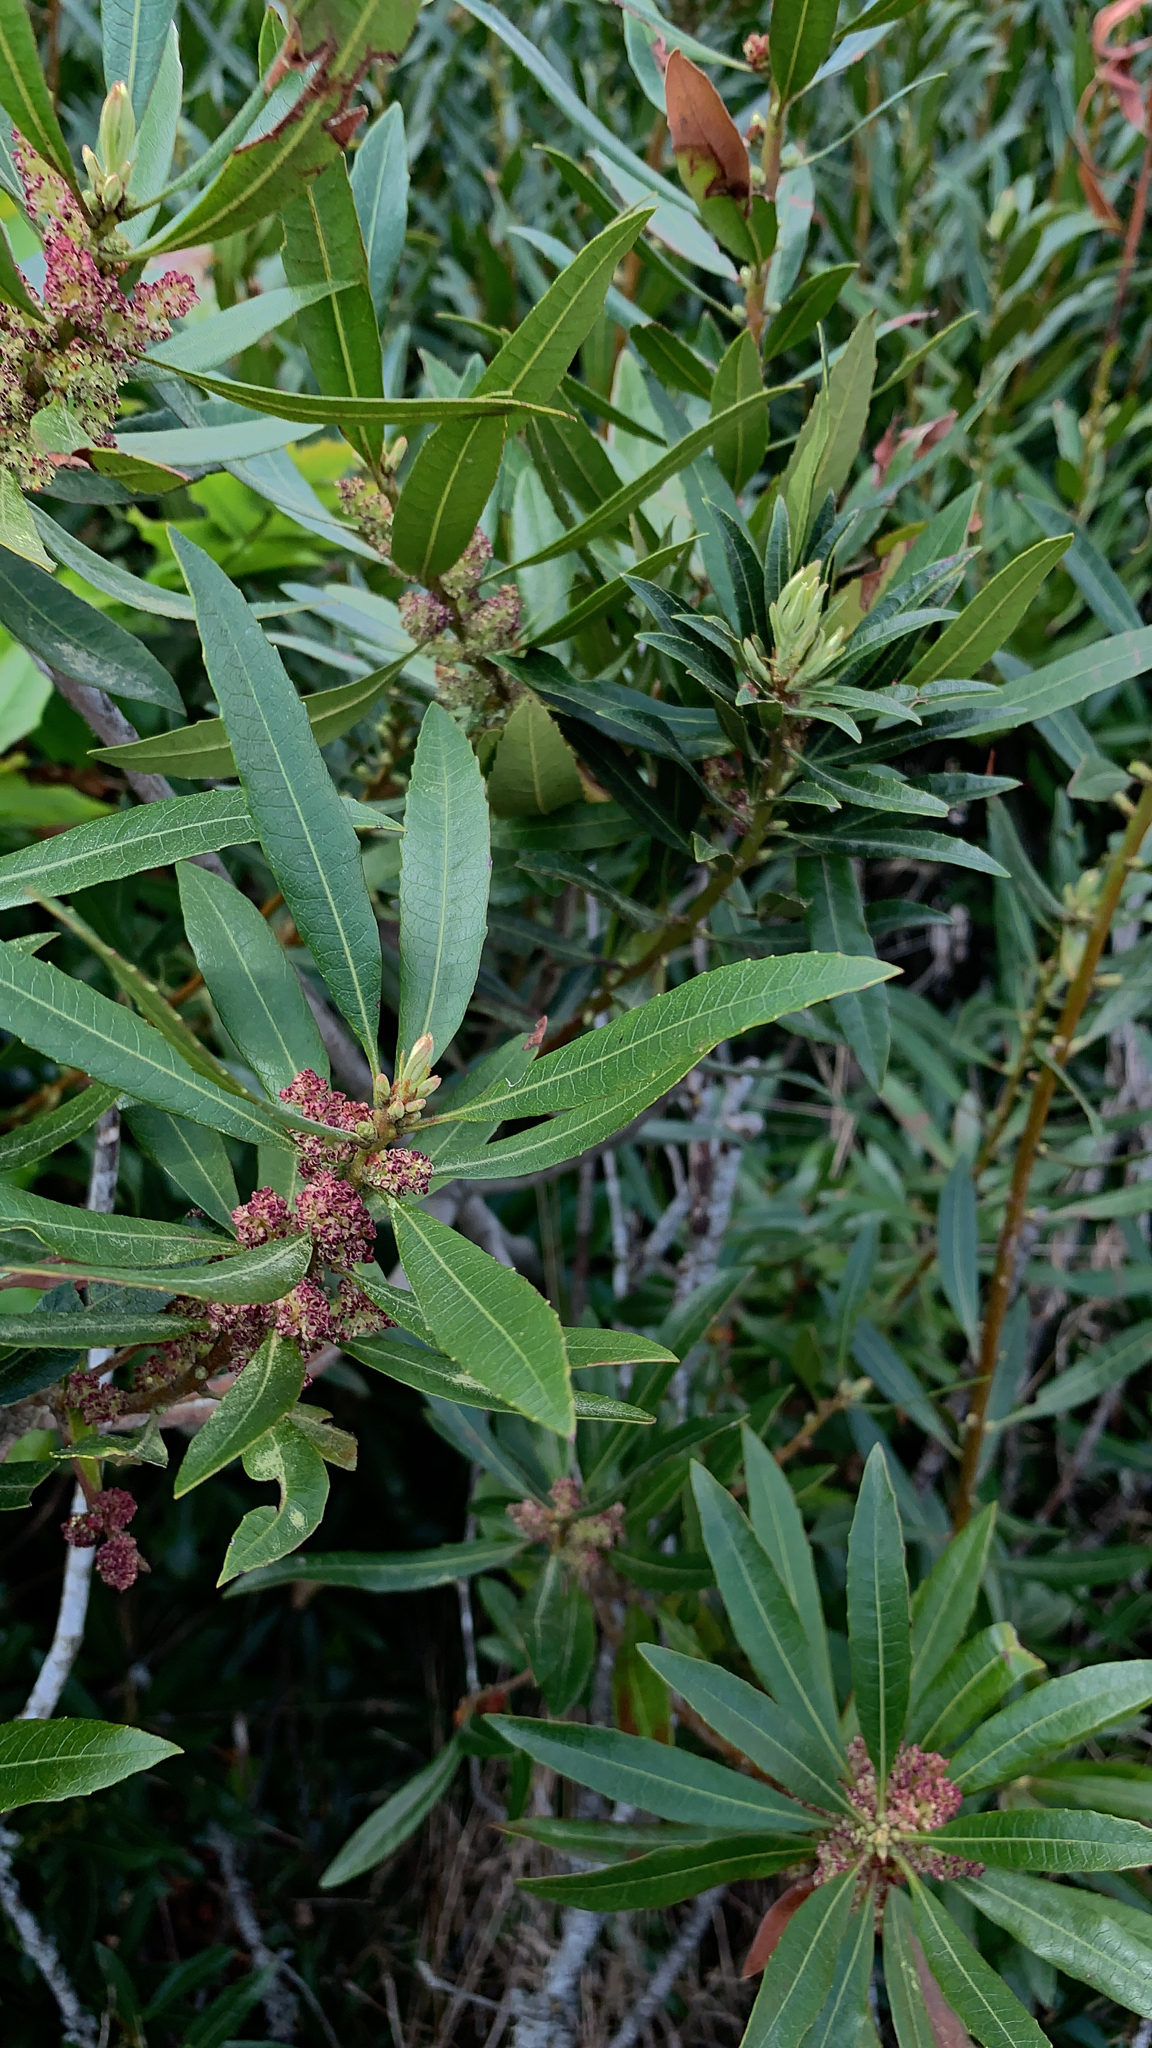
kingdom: Plantae
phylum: Tracheophyta
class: Magnoliopsida
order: Fagales
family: Myricaceae
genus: Morella
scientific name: Morella californica
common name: California wax-myrtle
